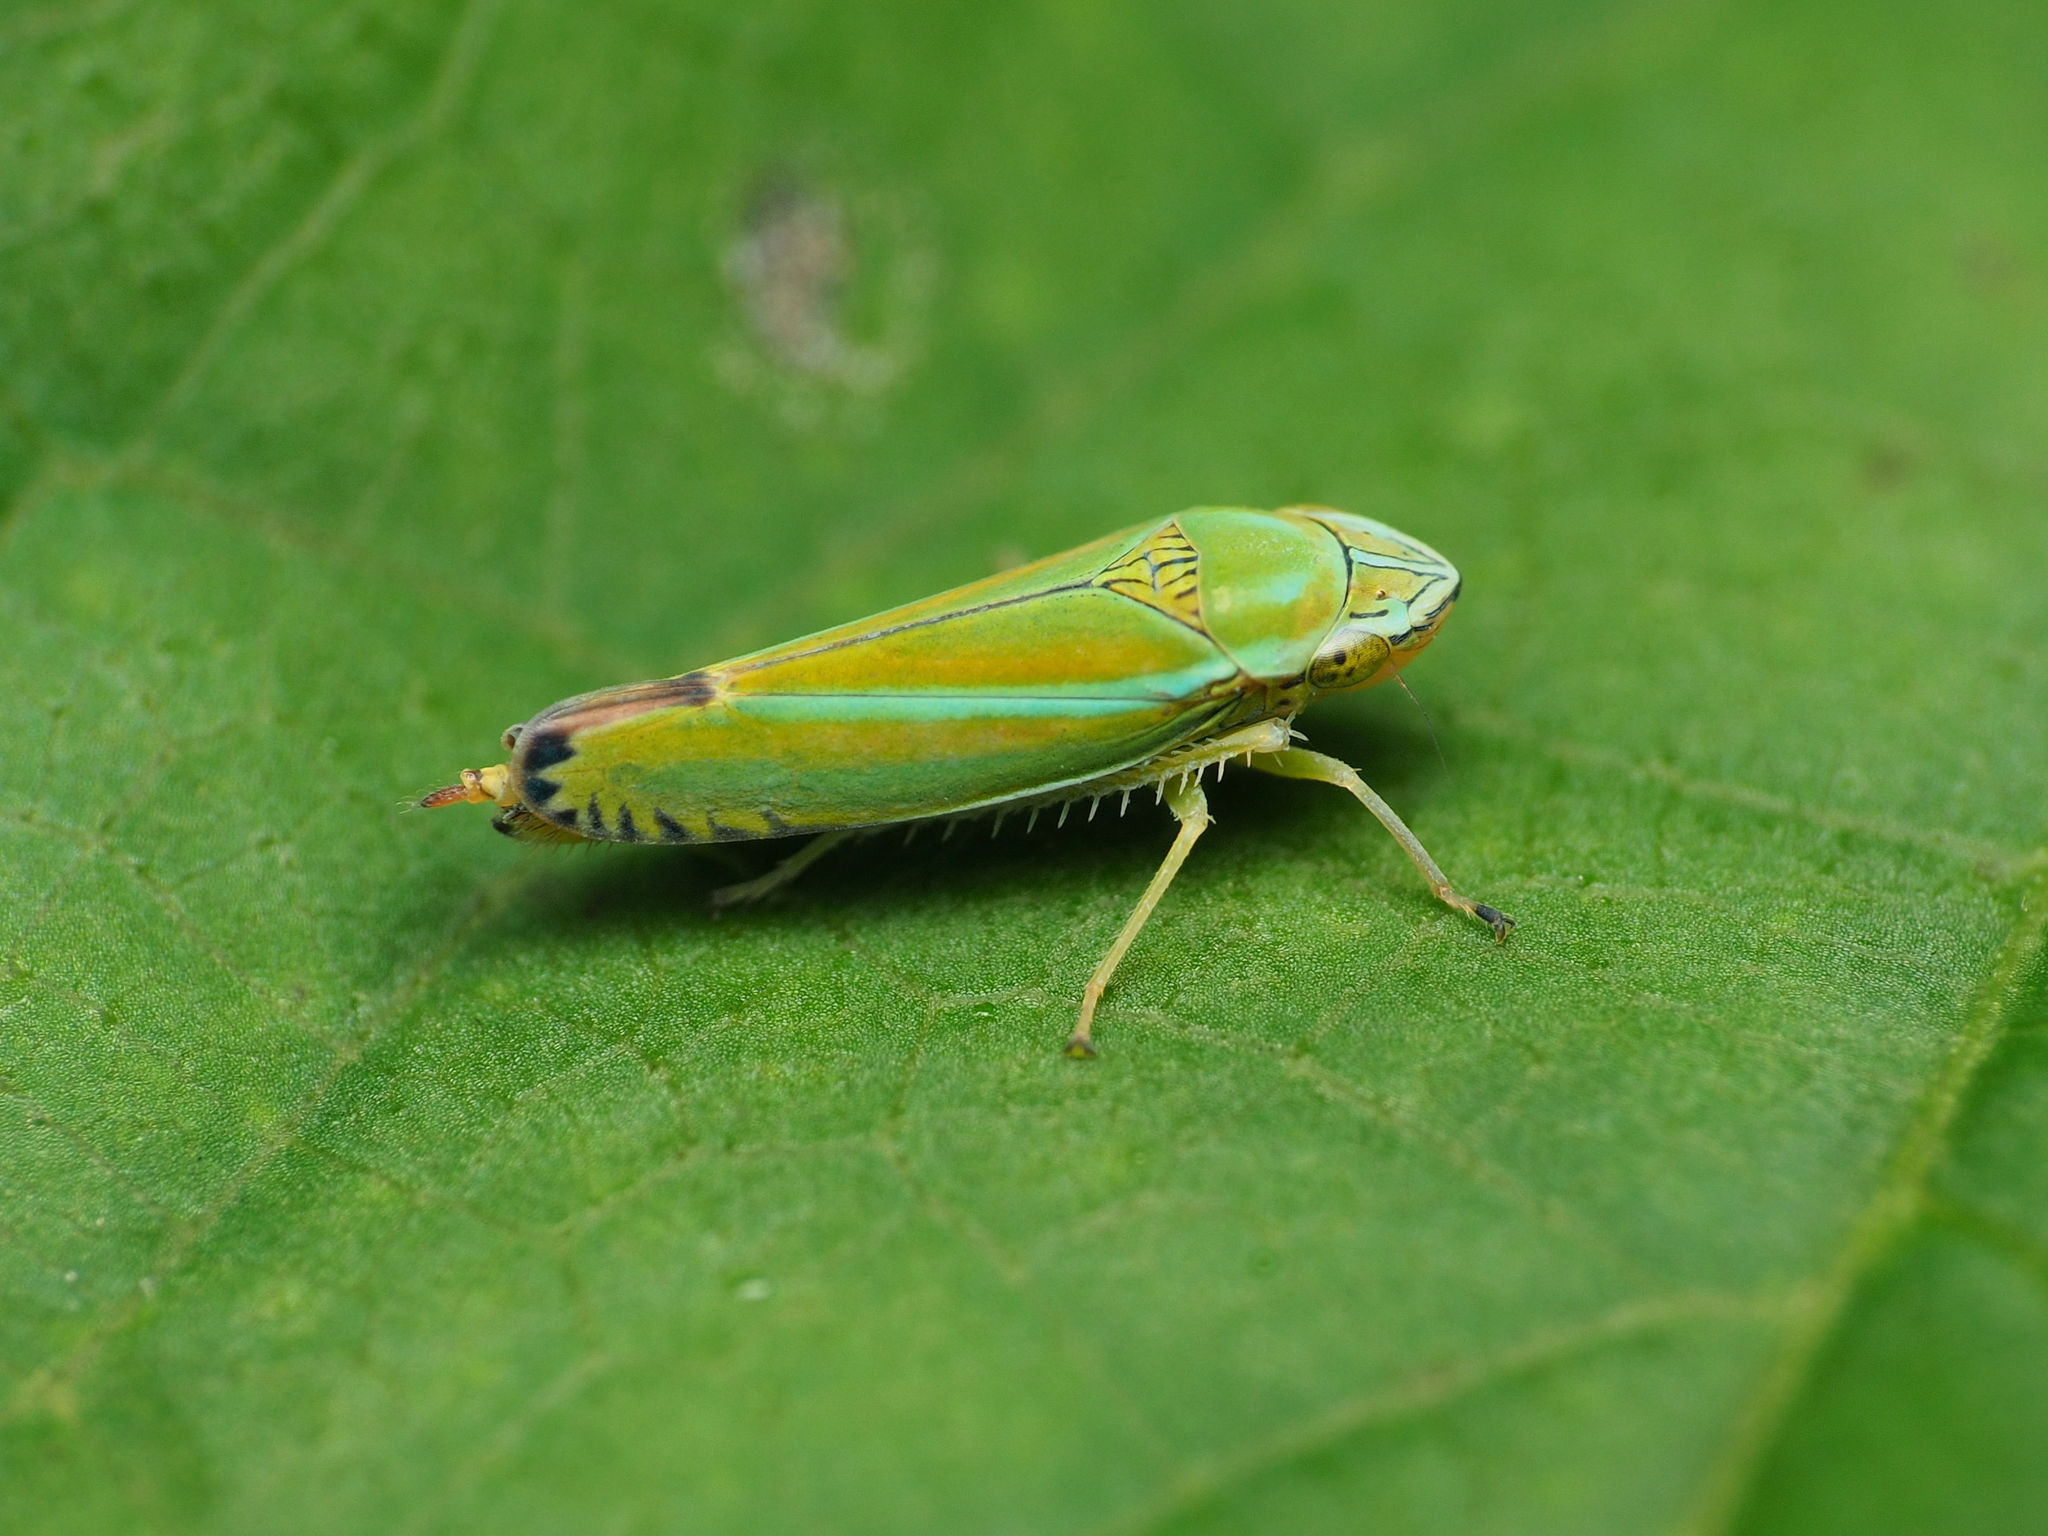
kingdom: Animalia
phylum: Arthropoda
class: Insecta
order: Hemiptera
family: Cicadellidae
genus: Graphocephala
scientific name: Graphocephala versuta
